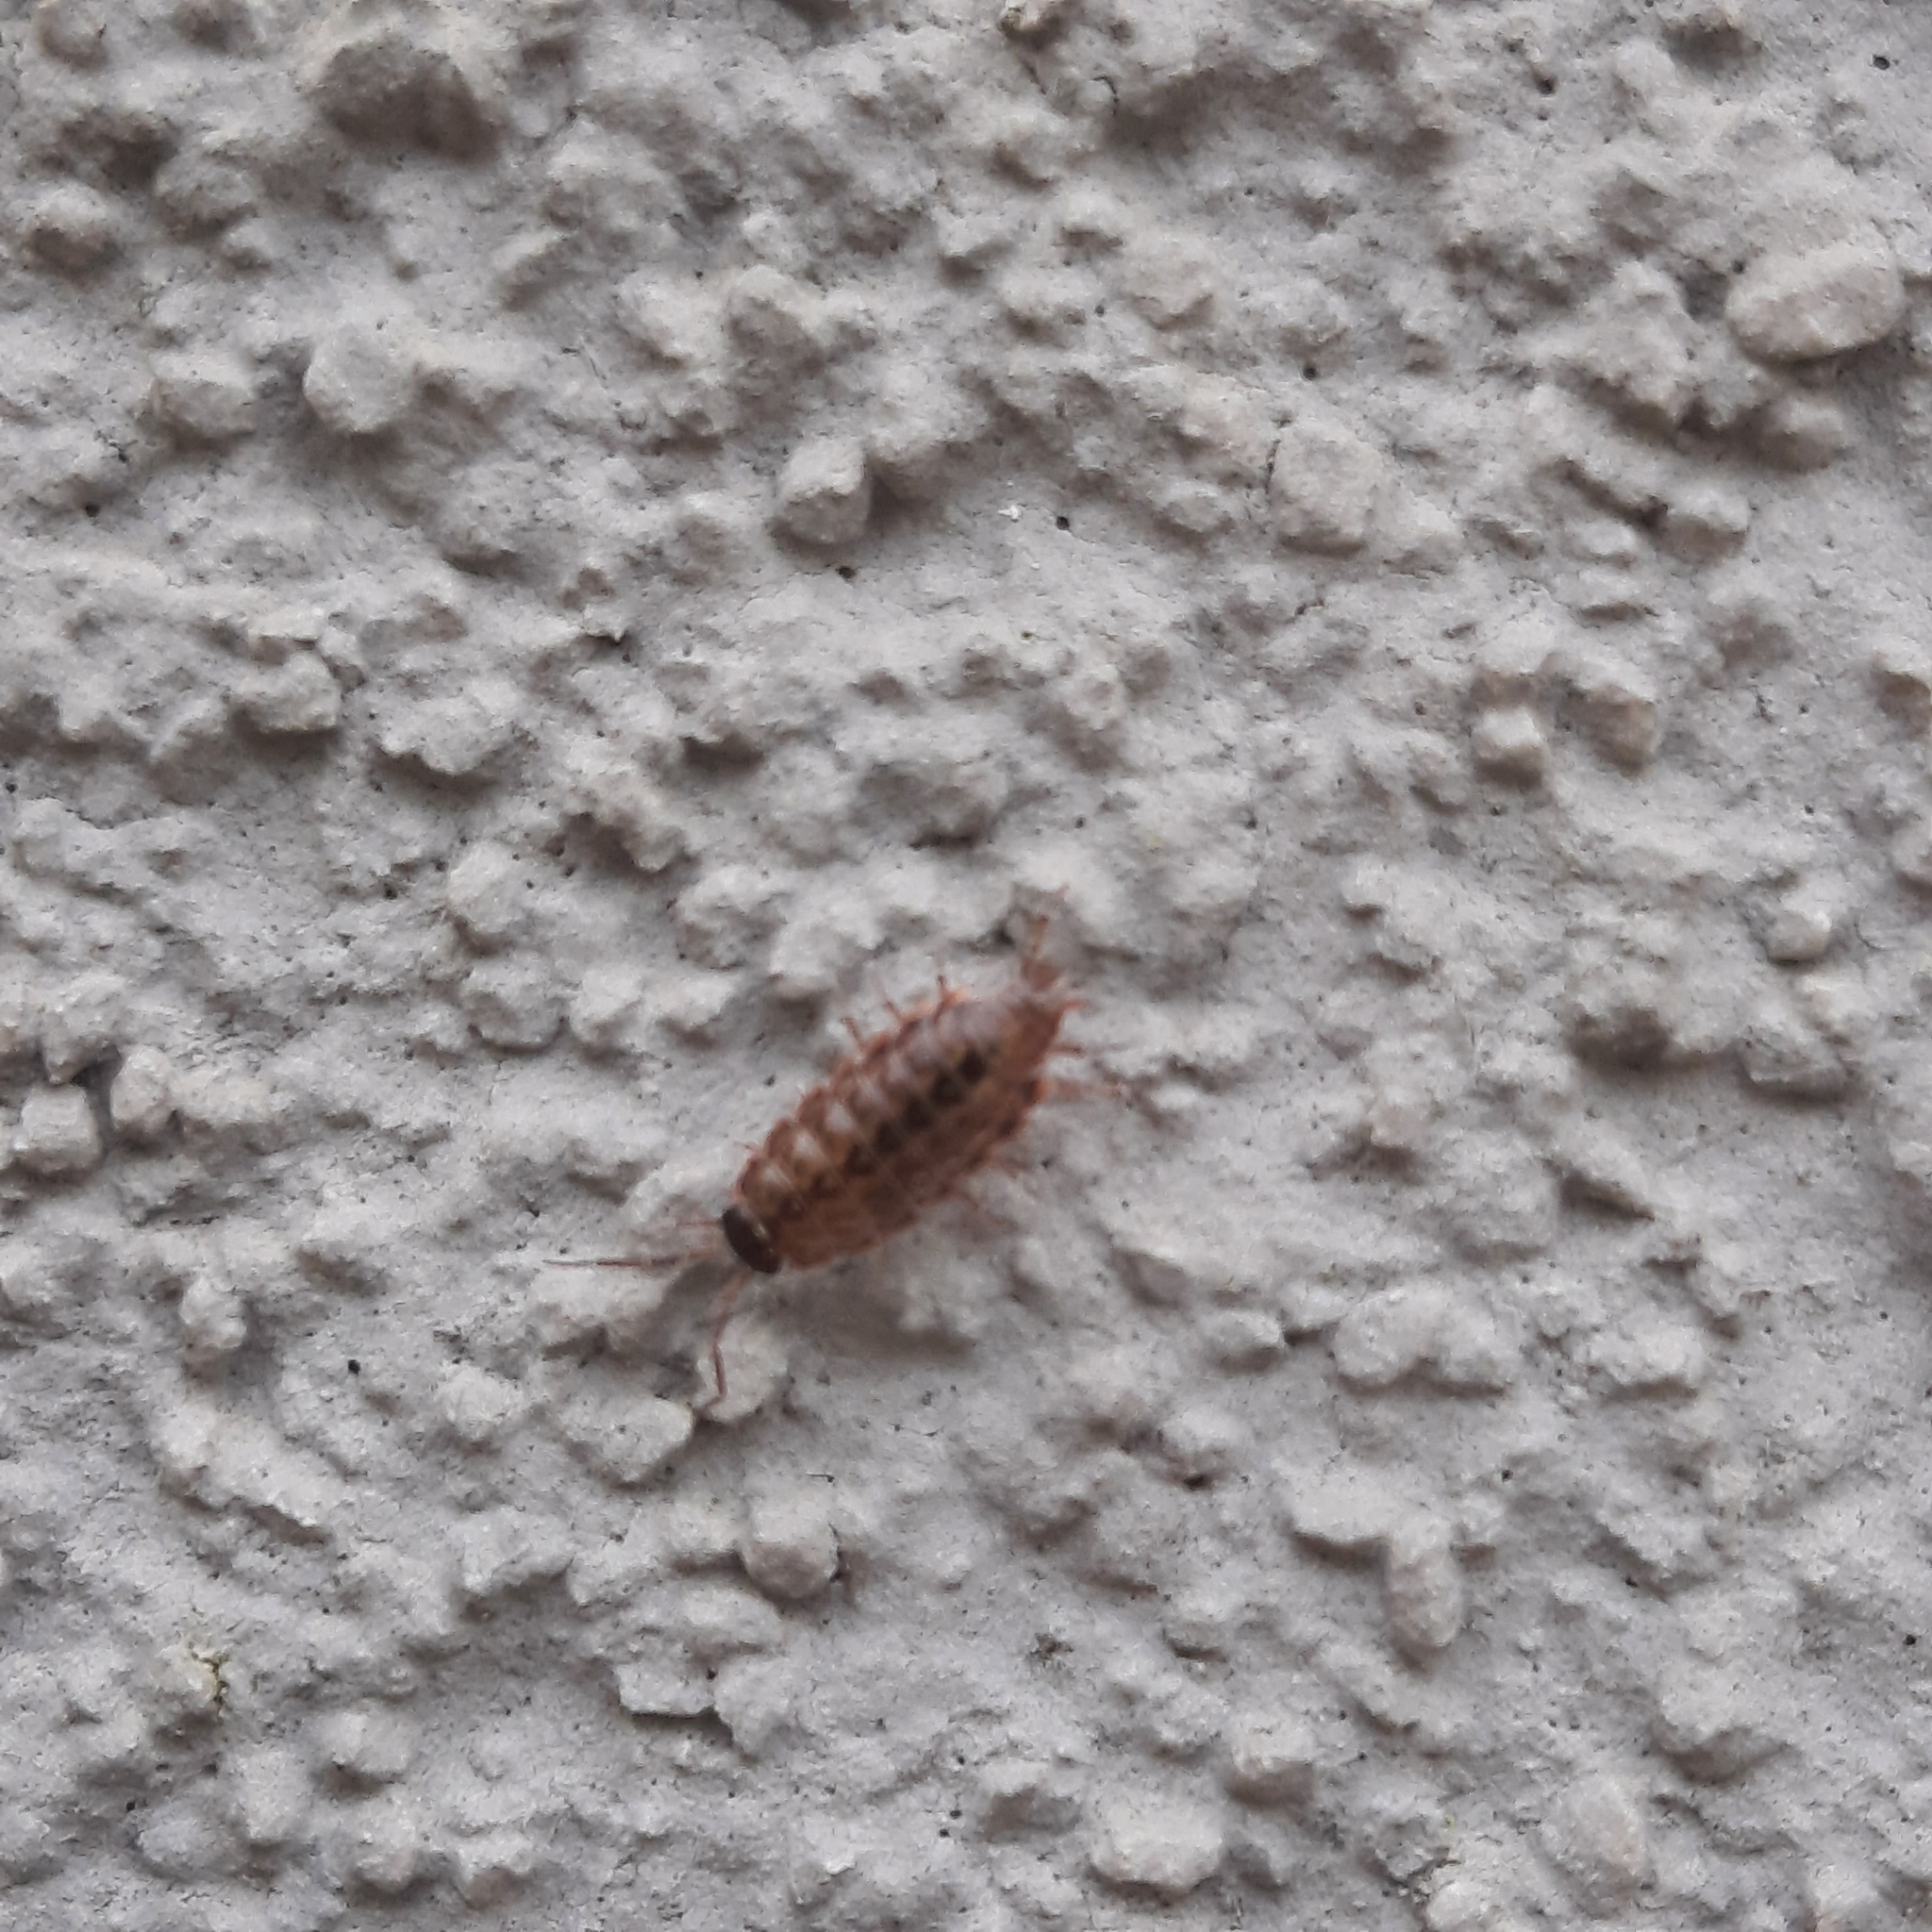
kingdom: Animalia
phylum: Arthropoda
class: Malacostraca
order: Isopoda
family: Philosciidae
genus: Philoscia
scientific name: Philoscia muscorum
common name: Common striped woodlouse
